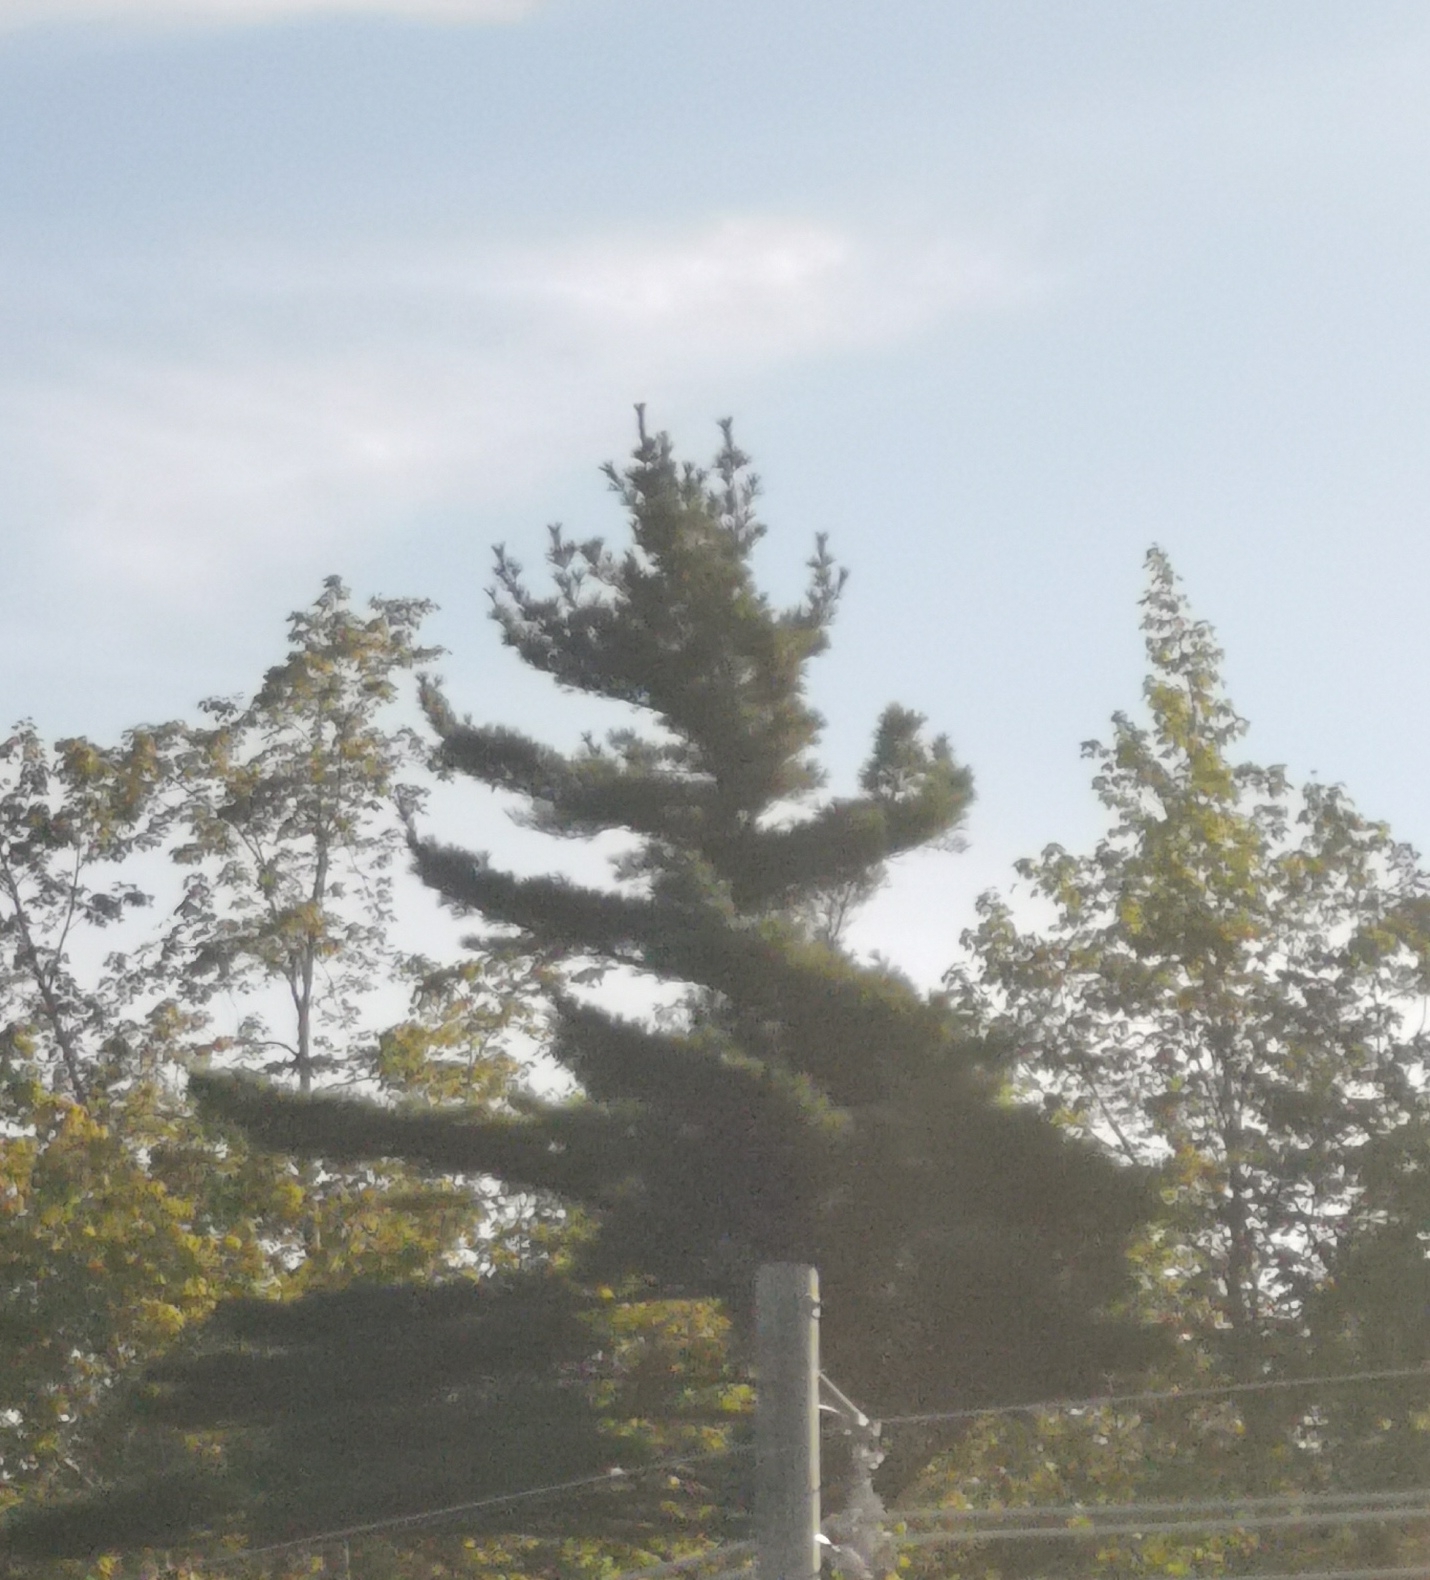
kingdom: Plantae
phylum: Tracheophyta
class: Pinopsida
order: Pinales
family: Pinaceae
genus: Pinus
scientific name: Pinus strobus
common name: Weymouth pine
